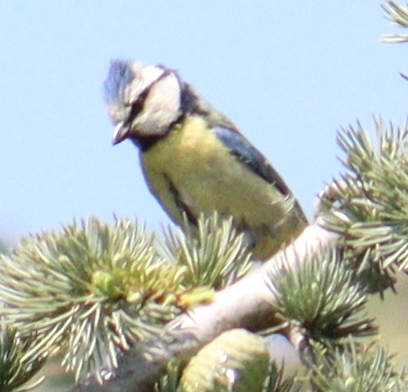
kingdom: Animalia
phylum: Chordata
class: Aves
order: Passeriformes
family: Paridae
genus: Cyanistes
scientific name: Cyanistes caeruleus
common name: Eurasian blue tit
